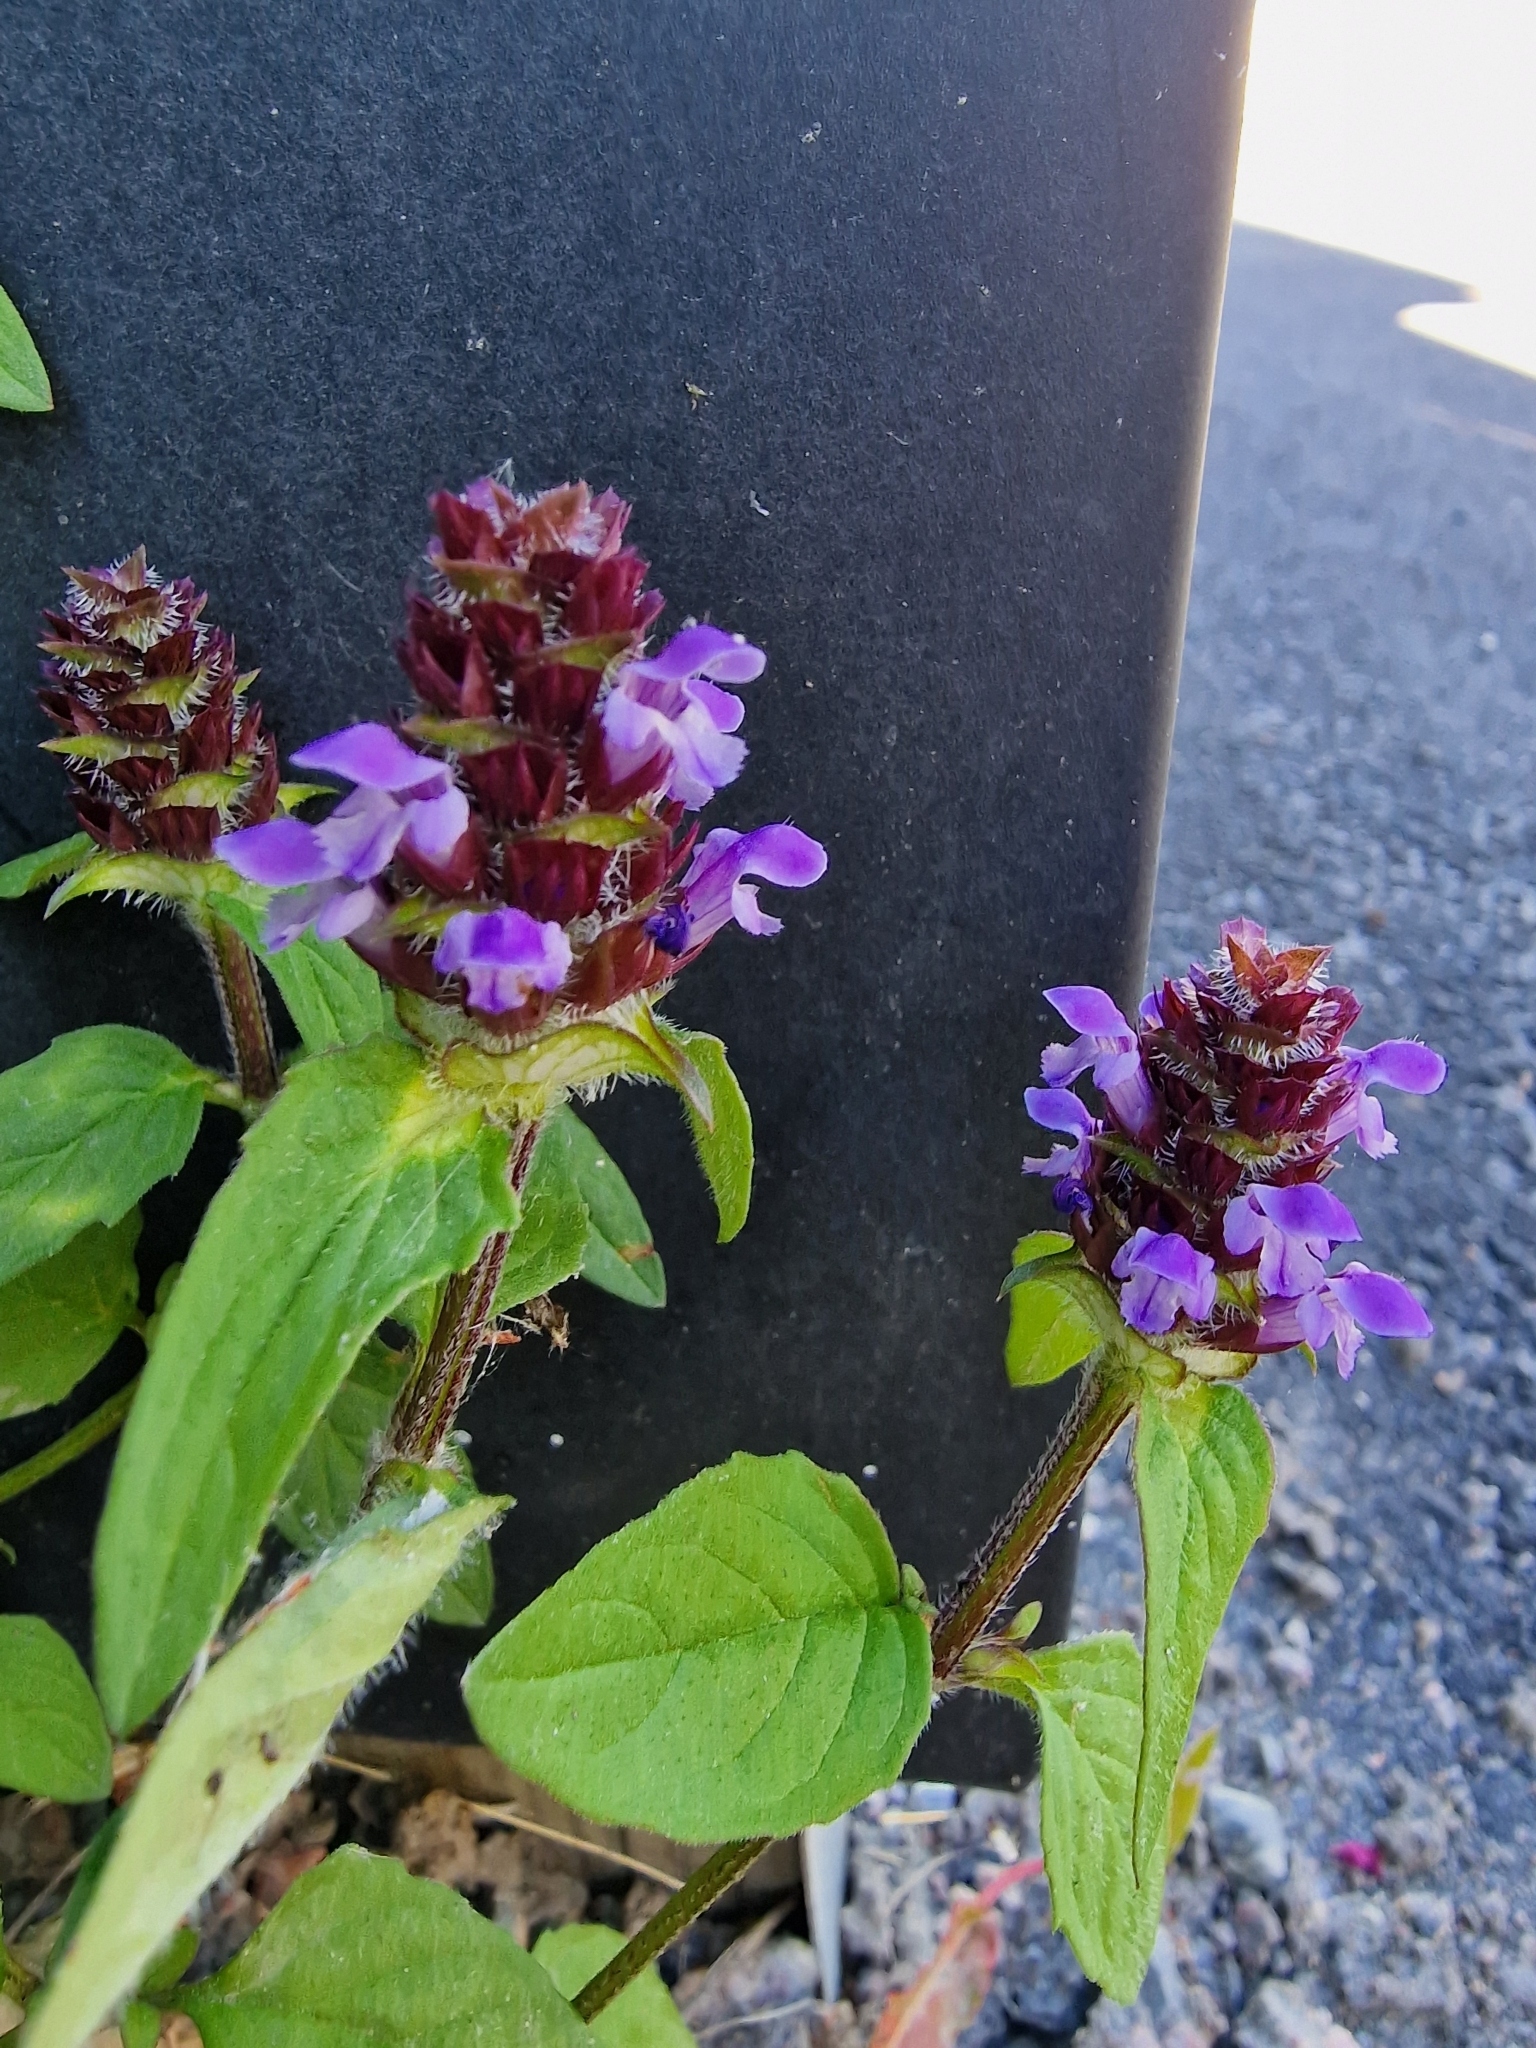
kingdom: Plantae
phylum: Tracheophyta
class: Magnoliopsida
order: Lamiales
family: Lamiaceae
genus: Prunella
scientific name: Prunella vulgaris
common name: Heal-all
